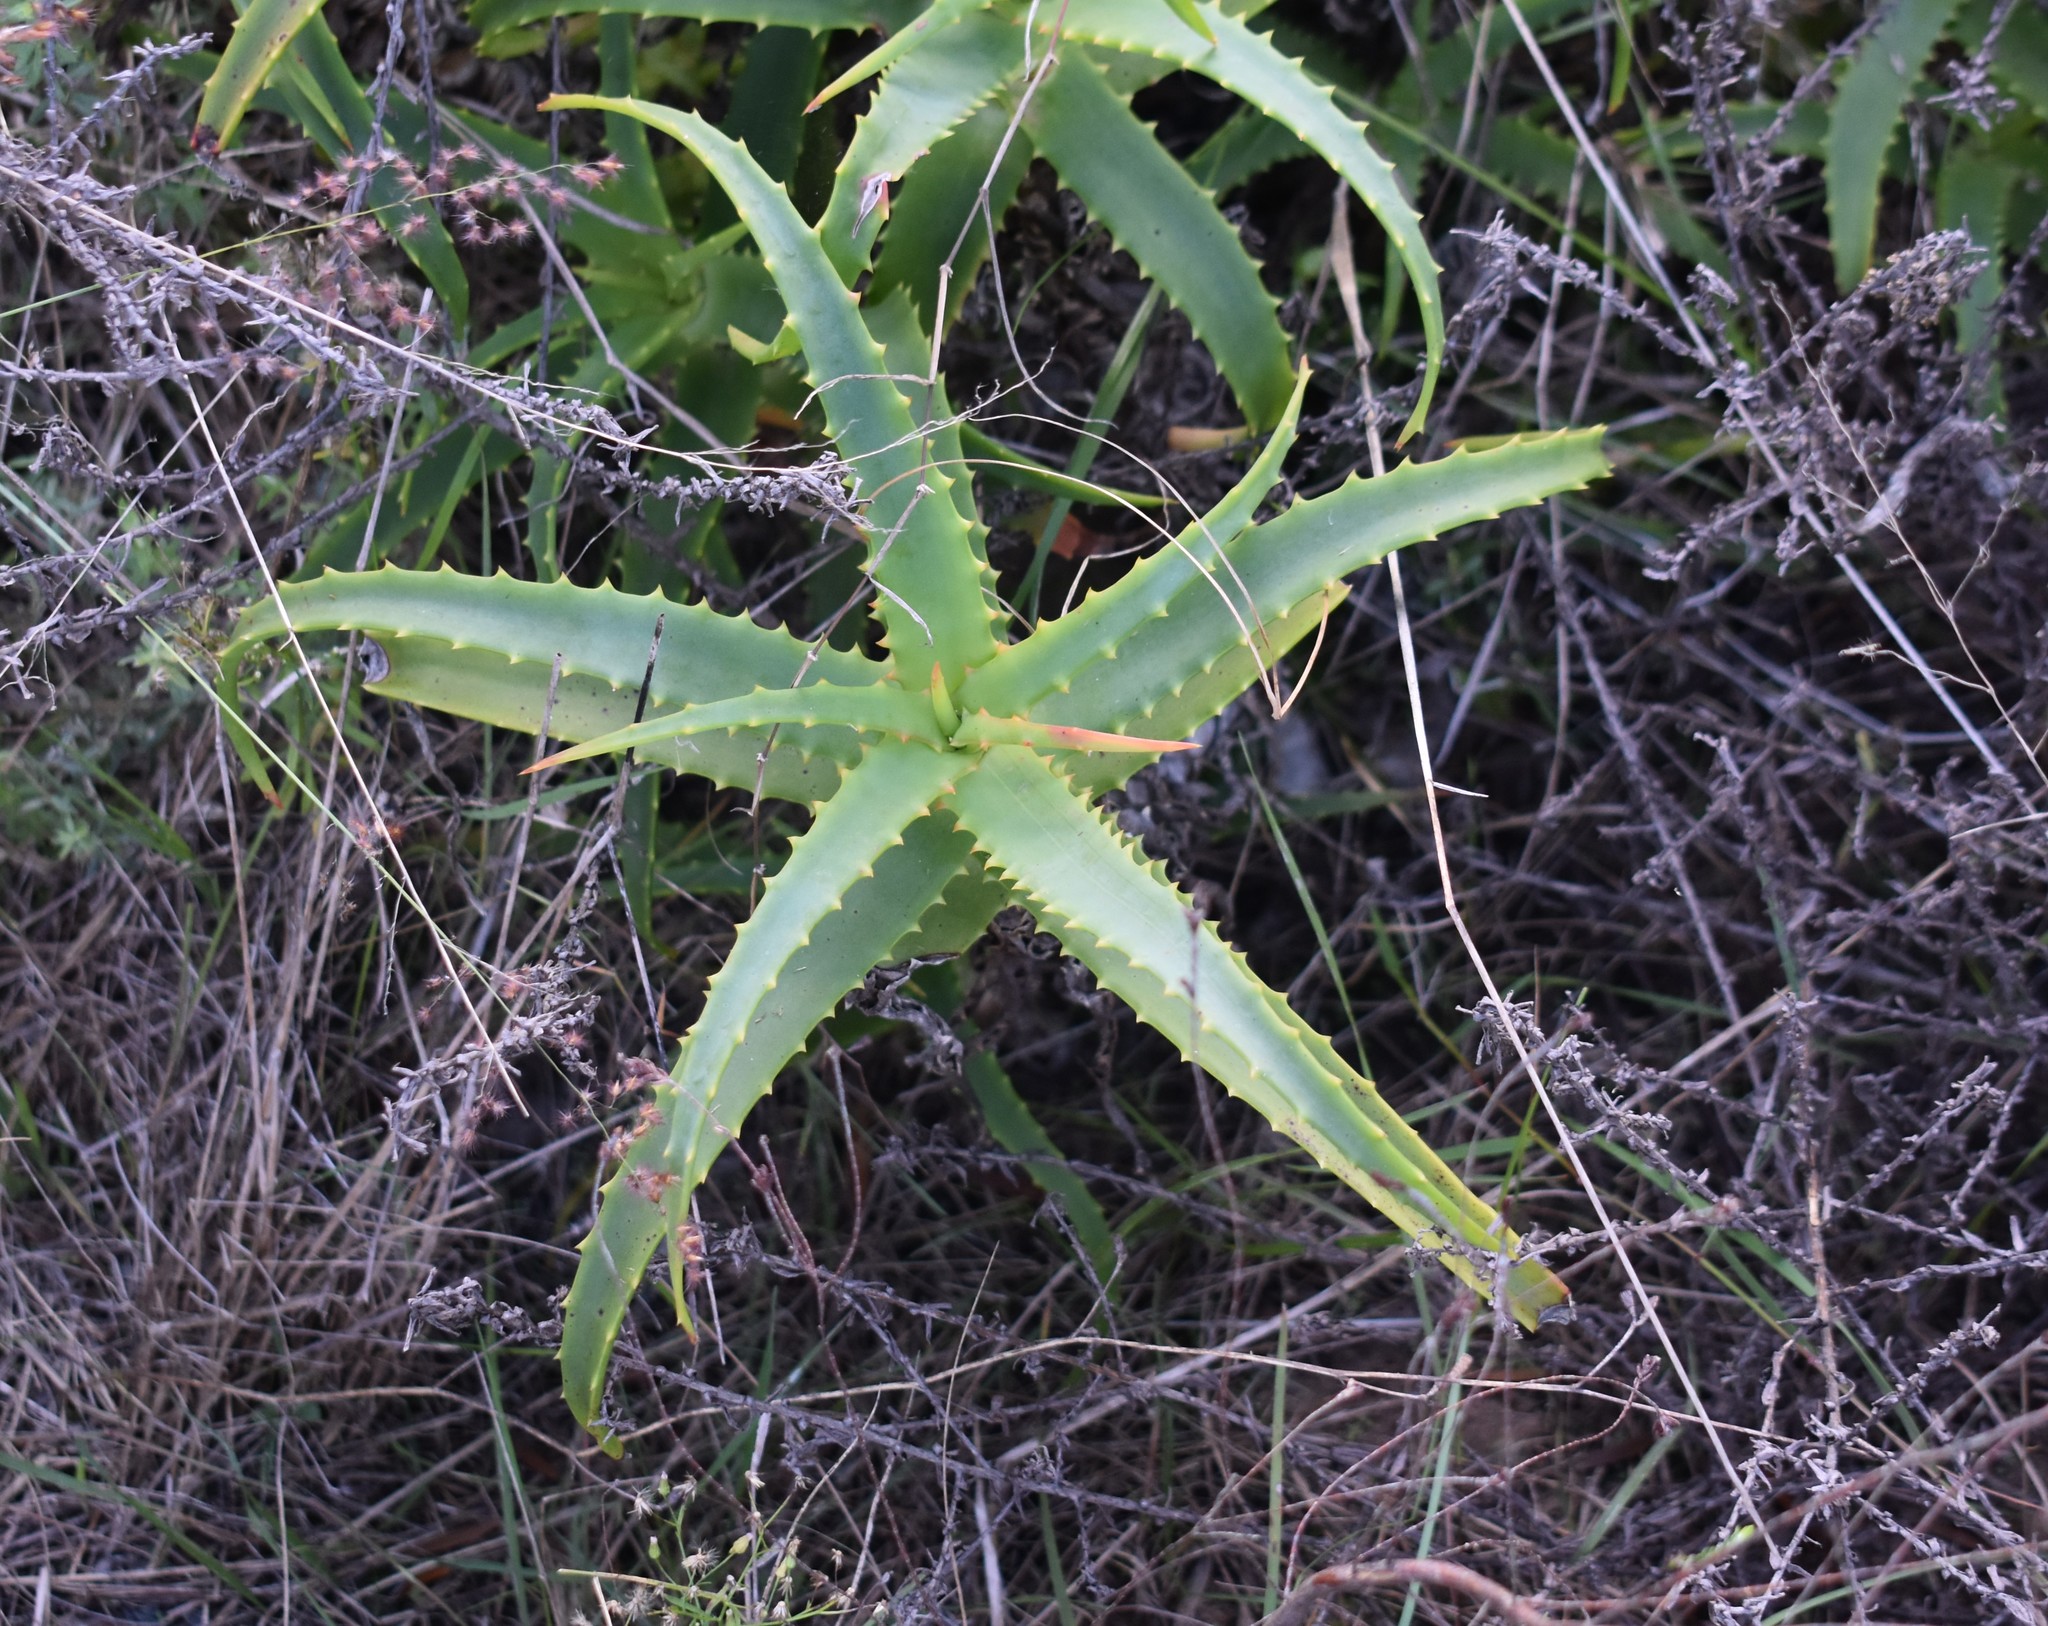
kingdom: Plantae
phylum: Tracheophyta
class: Liliopsida
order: Asparagales
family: Asphodelaceae
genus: Aloe
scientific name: Aloe arborescens
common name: Candelabra aloe
